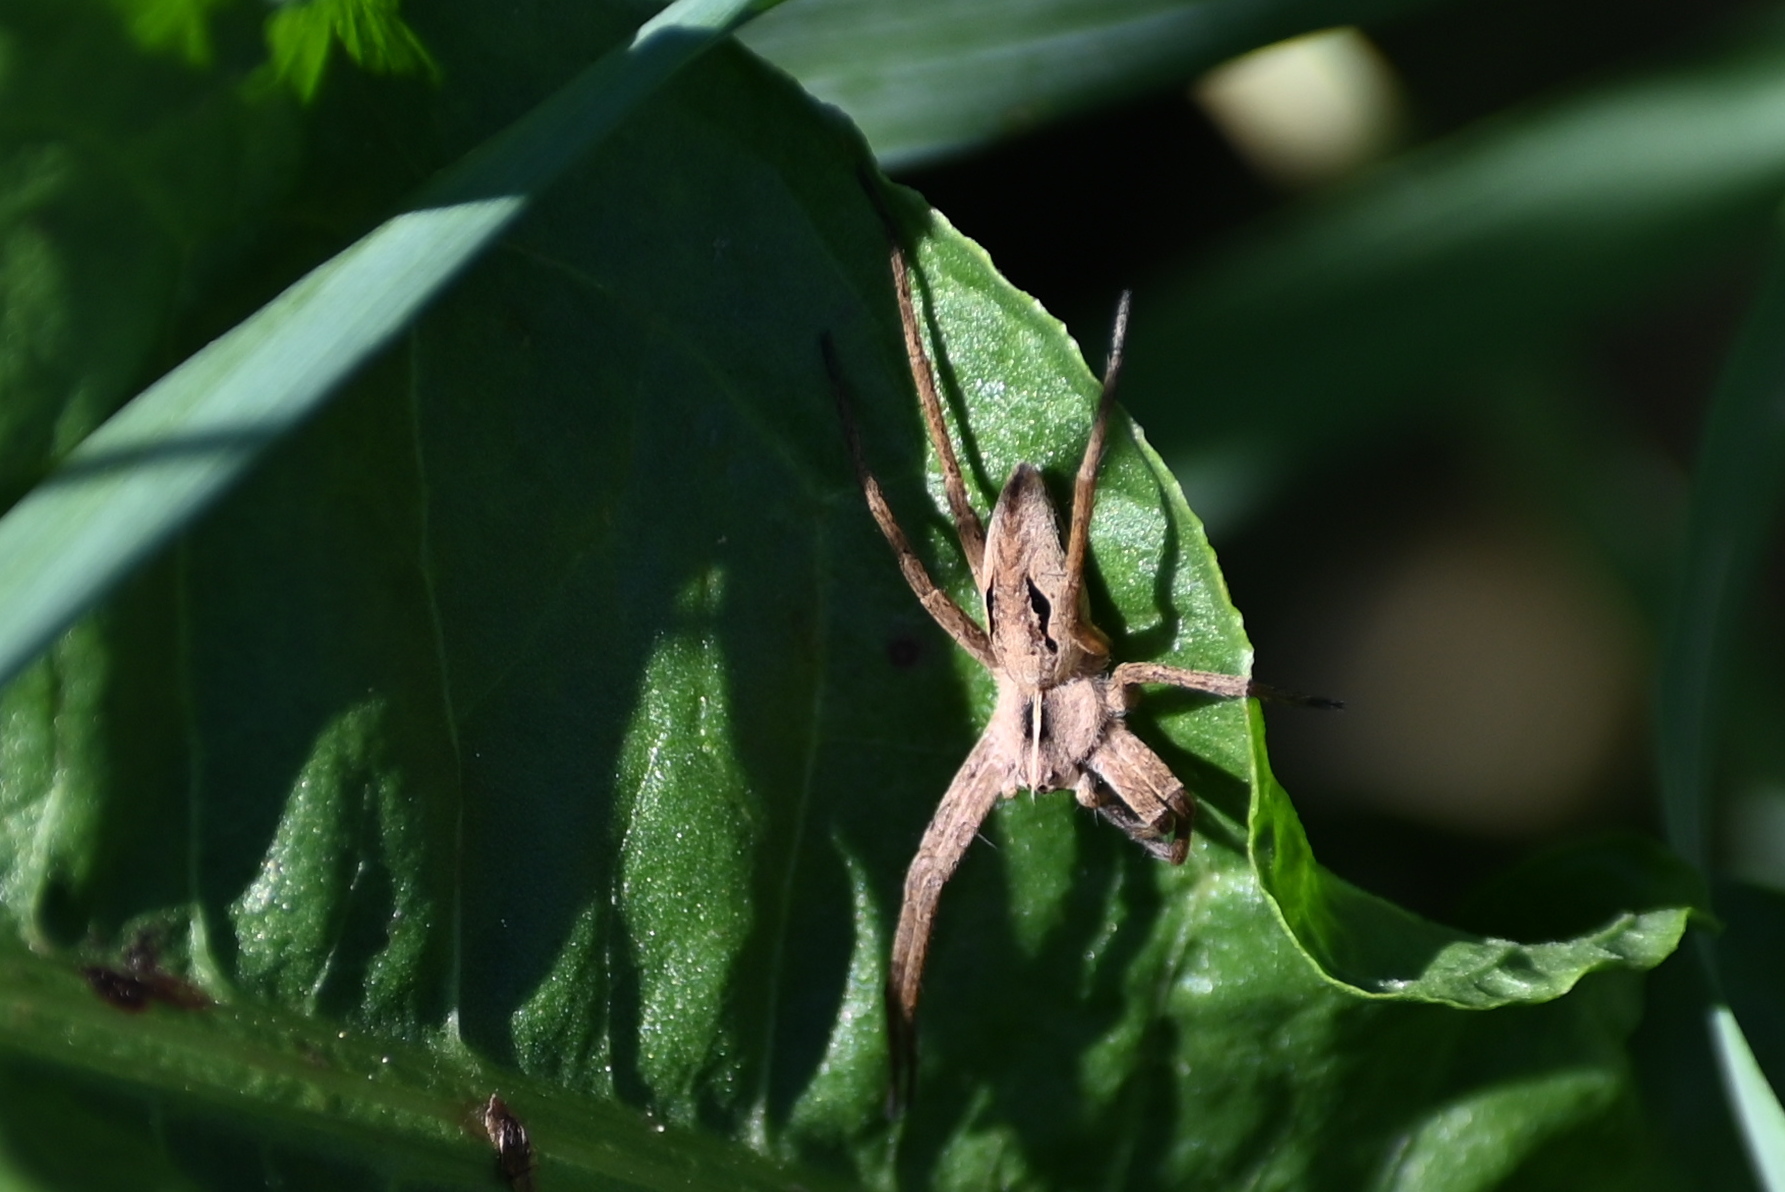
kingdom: Animalia
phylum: Arthropoda
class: Arachnida
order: Araneae
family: Pisauridae
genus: Pisaura
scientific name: Pisaura mirabilis
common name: Tent spider
